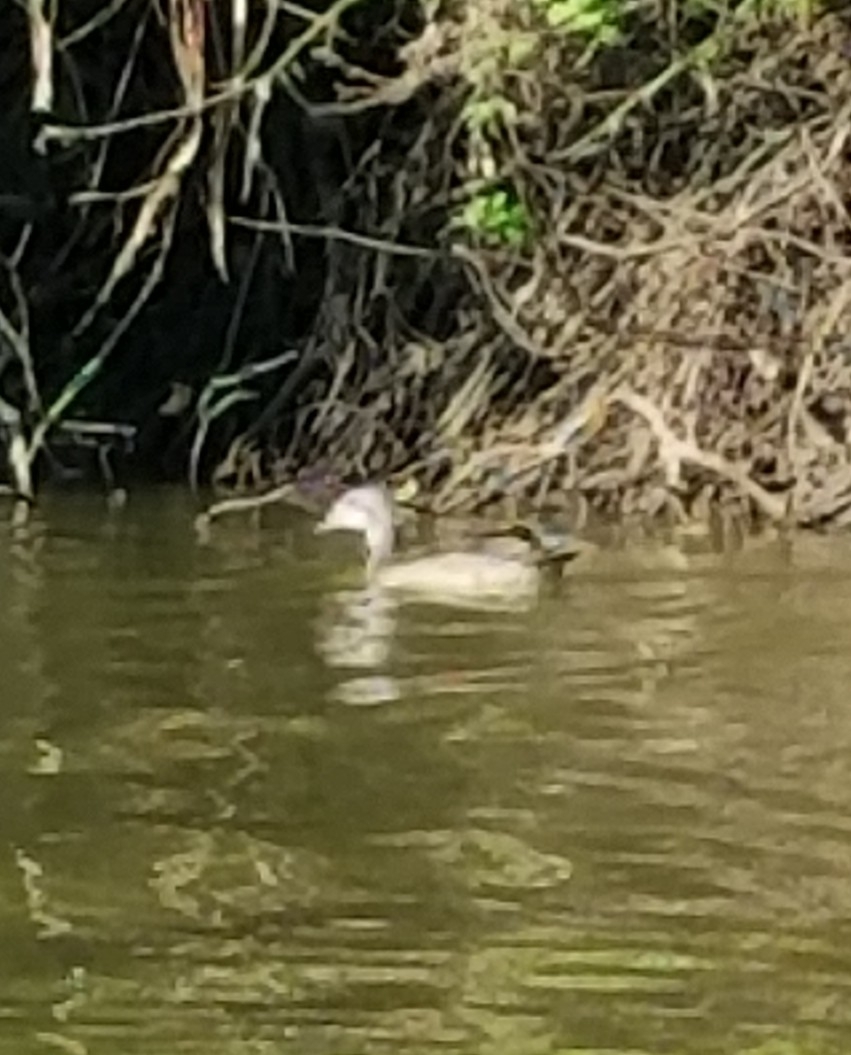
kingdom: Animalia
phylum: Chordata
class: Aves
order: Anseriformes
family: Anatidae
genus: Anas
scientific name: Anas platyrhynchos
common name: Mallard
